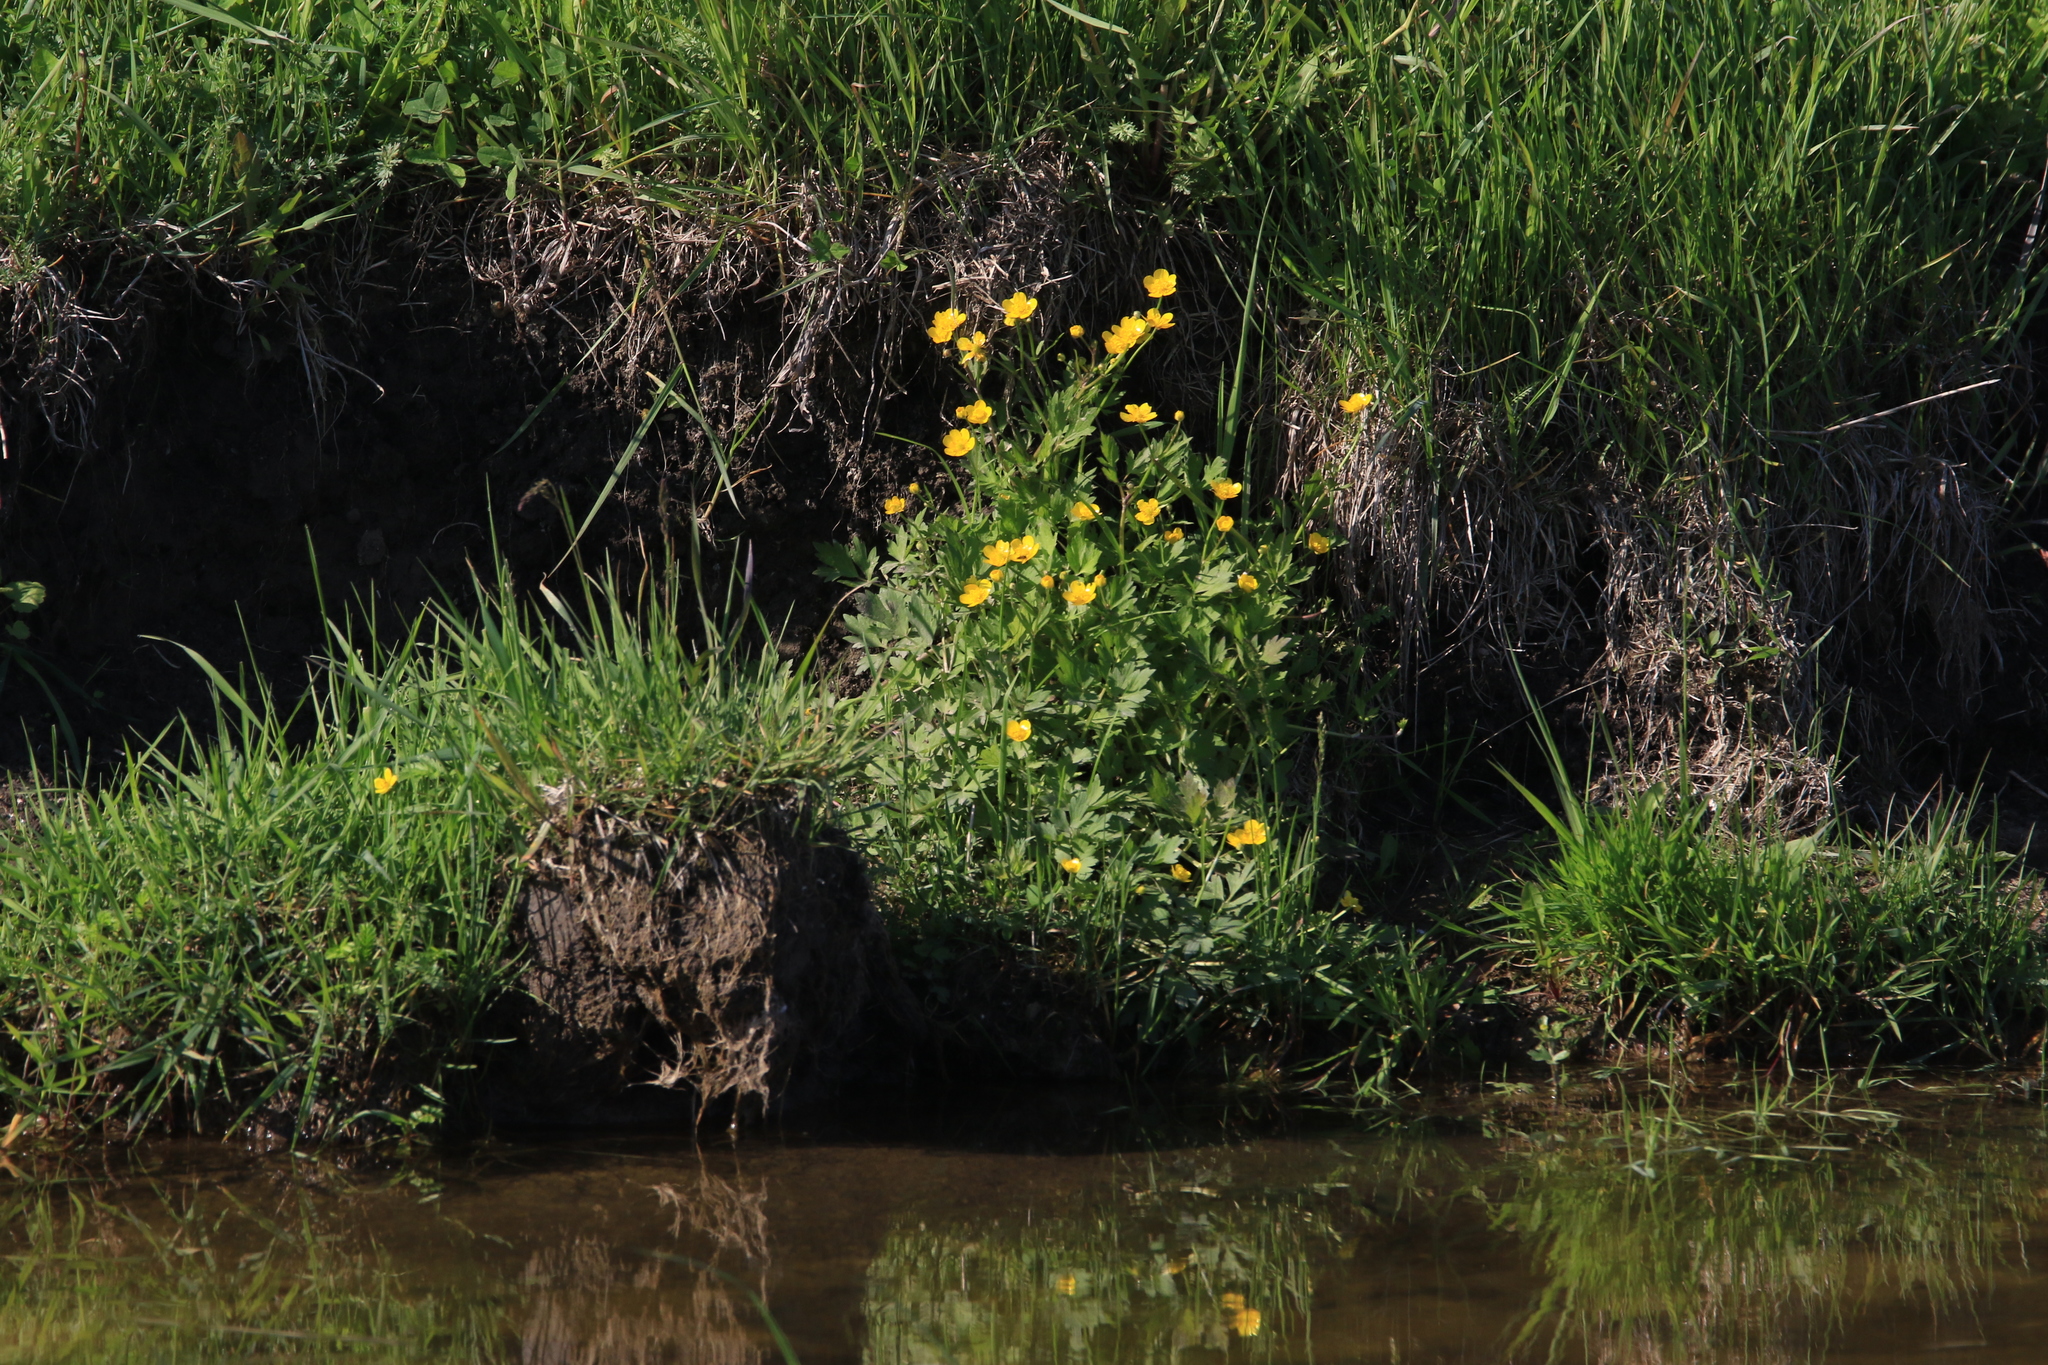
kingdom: Plantae
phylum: Tracheophyta
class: Magnoliopsida
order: Ranunculales
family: Ranunculaceae
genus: Caltha
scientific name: Caltha palustris
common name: Marsh marigold
